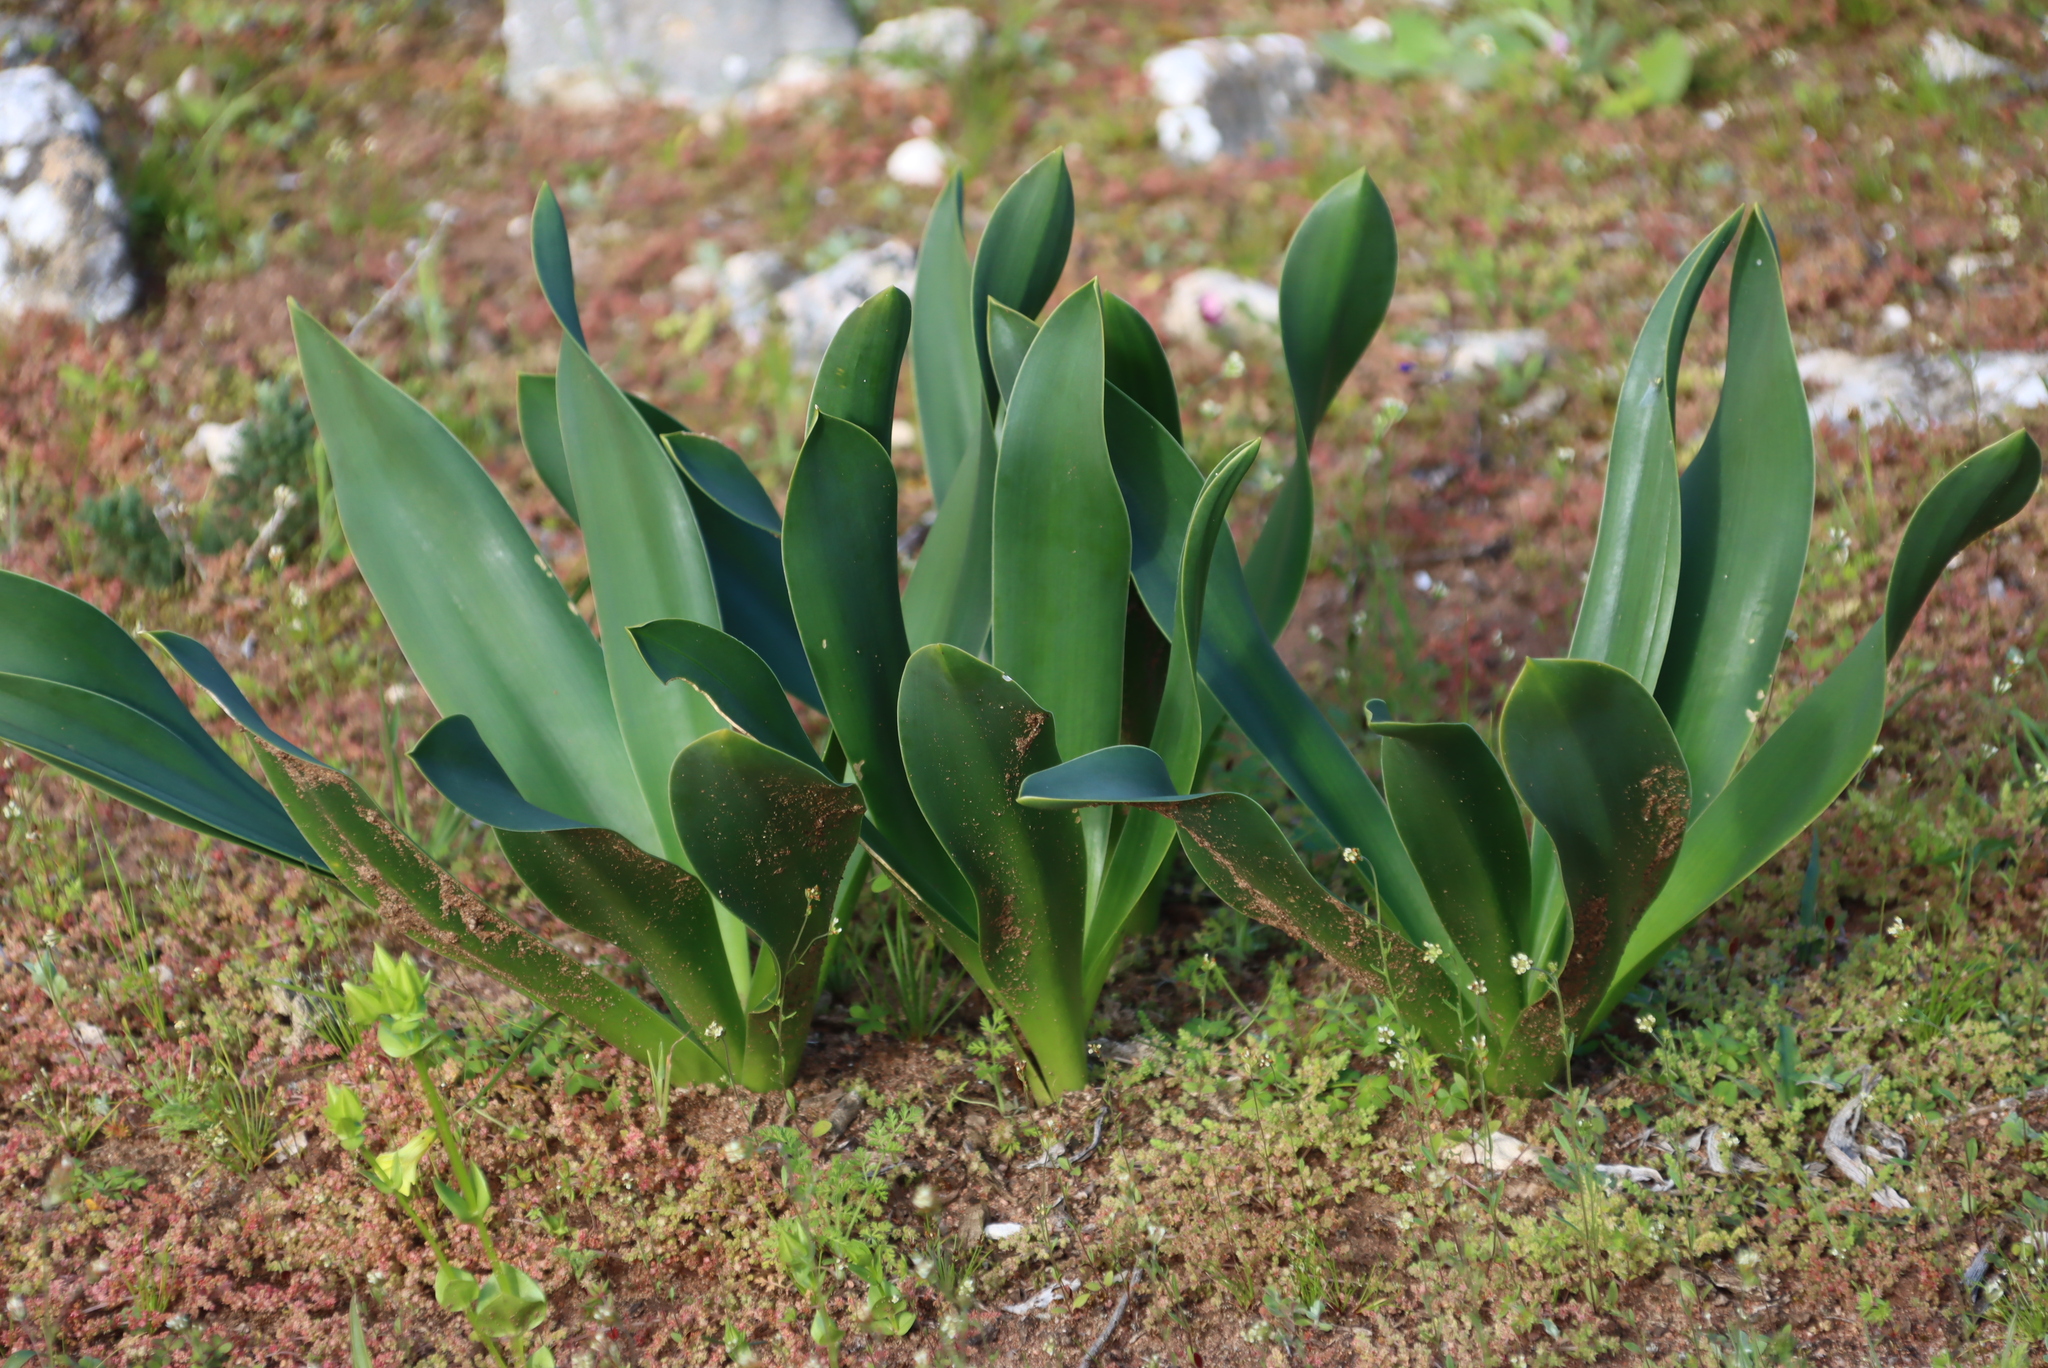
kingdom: Plantae
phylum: Tracheophyta
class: Liliopsida
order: Asparagales
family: Asparagaceae
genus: Drimia
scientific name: Drimia capensis
